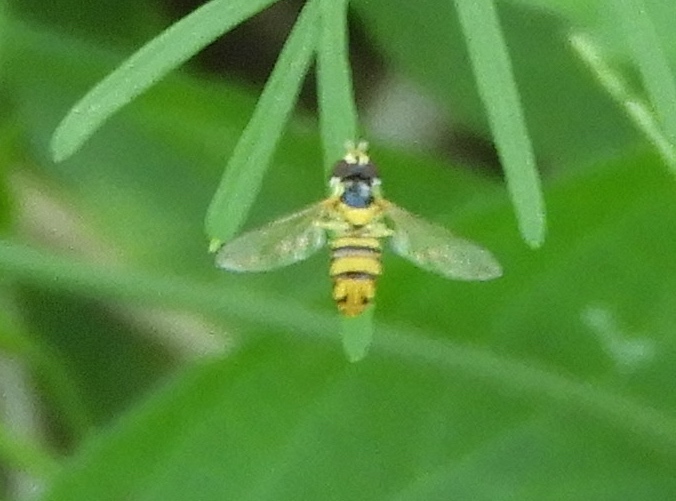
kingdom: Animalia
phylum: Arthropoda
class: Insecta
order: Diptera
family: Syrphidae
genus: Allograpta
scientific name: Allograpta obliqua
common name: Common oblique syrphid
